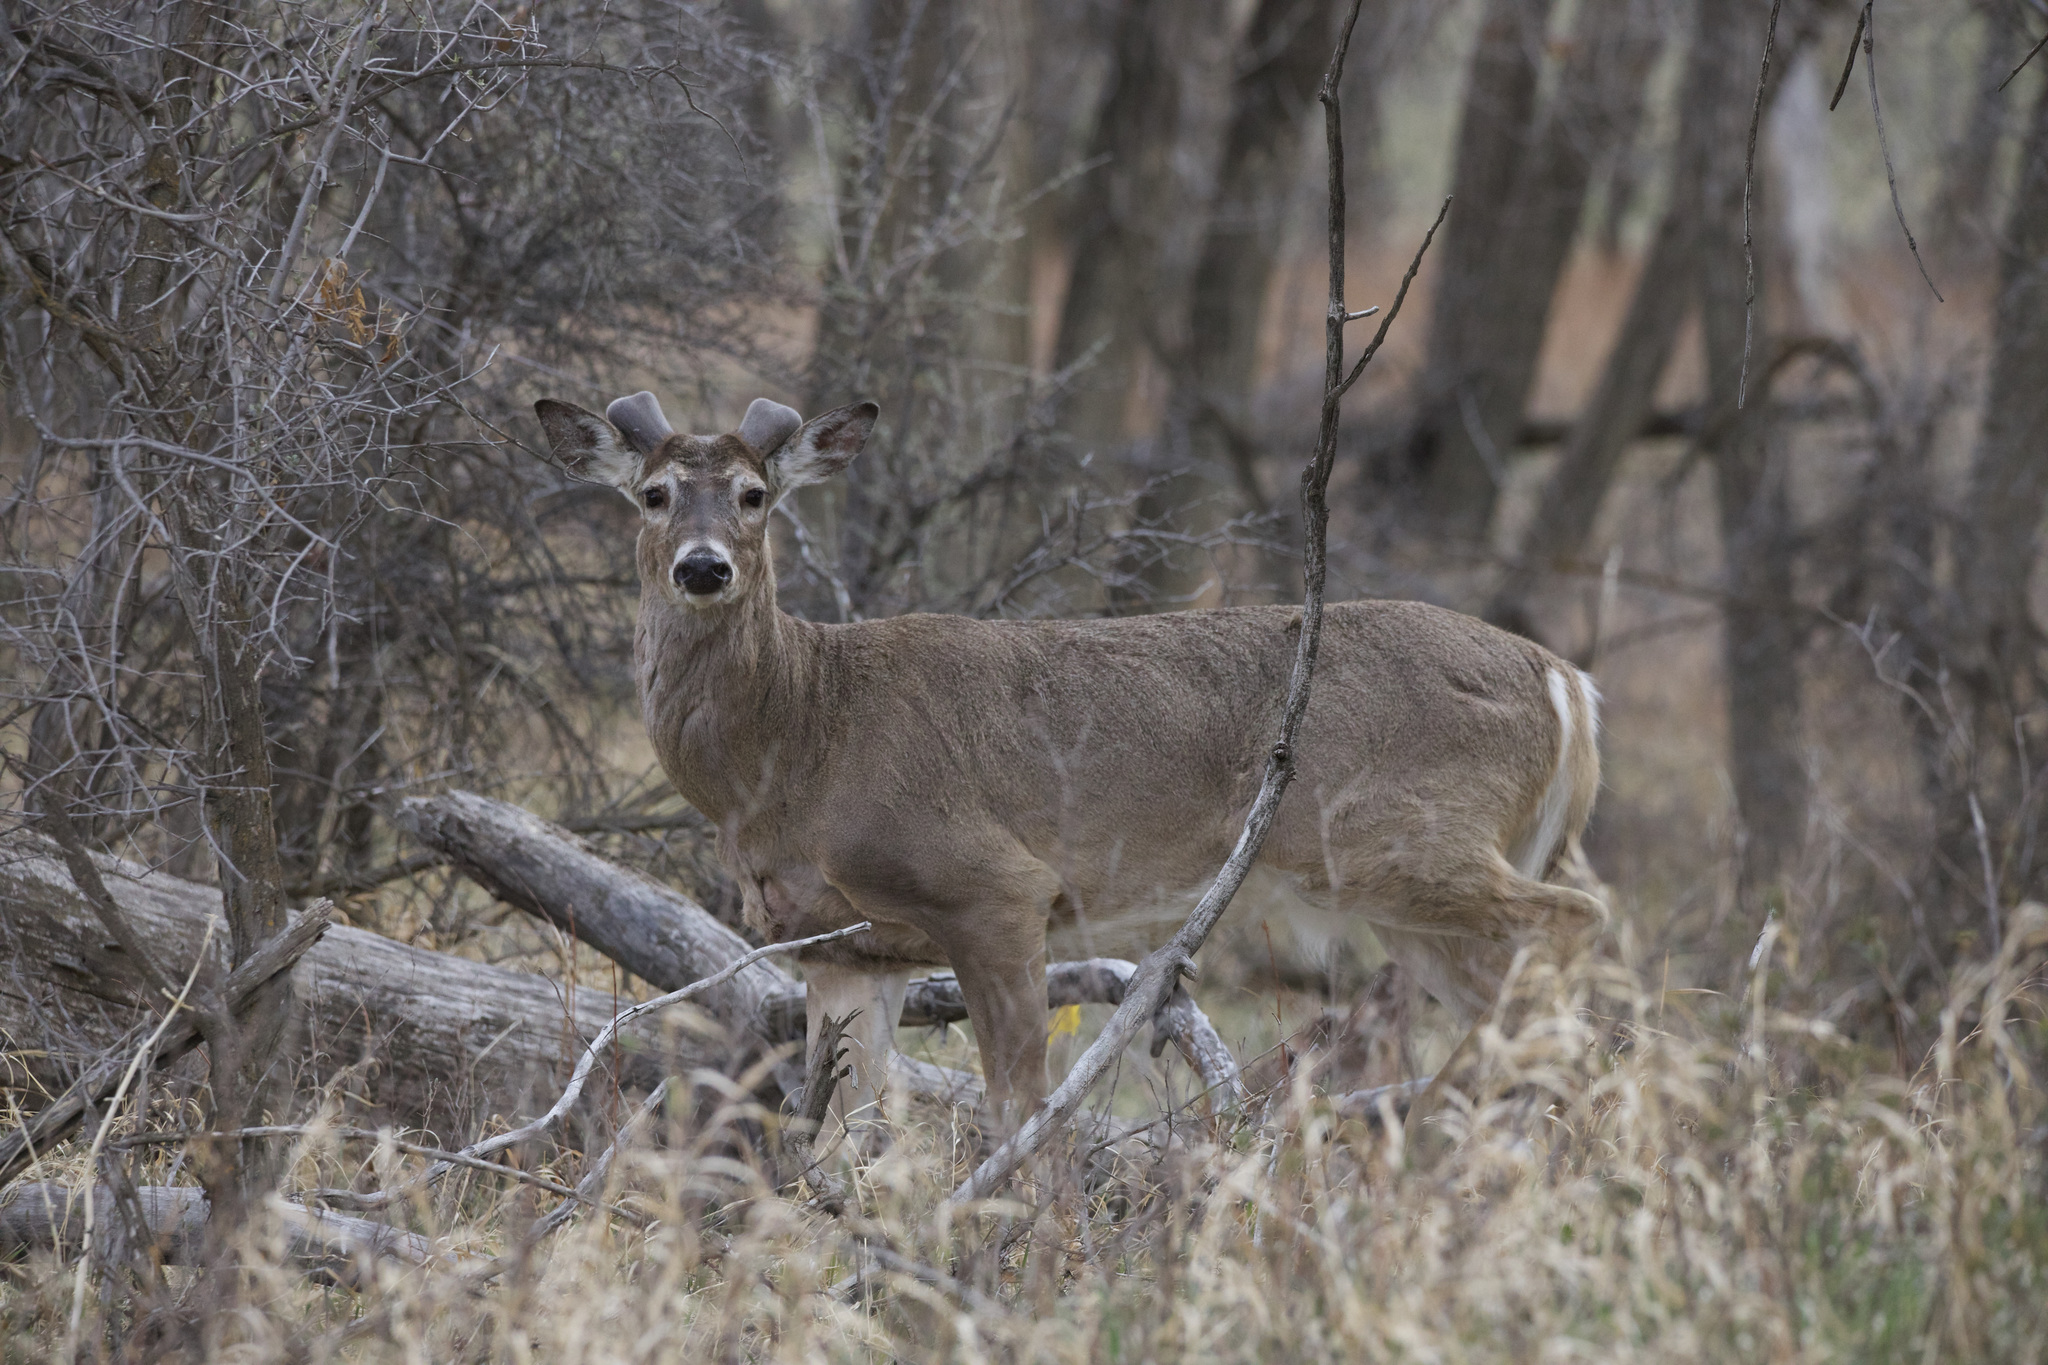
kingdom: Animalia
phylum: Chordata
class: Mammalia
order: Artiodactyla
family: Cervidae
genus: Odocoileus
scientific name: Odocoileus virginianus
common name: White-tailed deer
